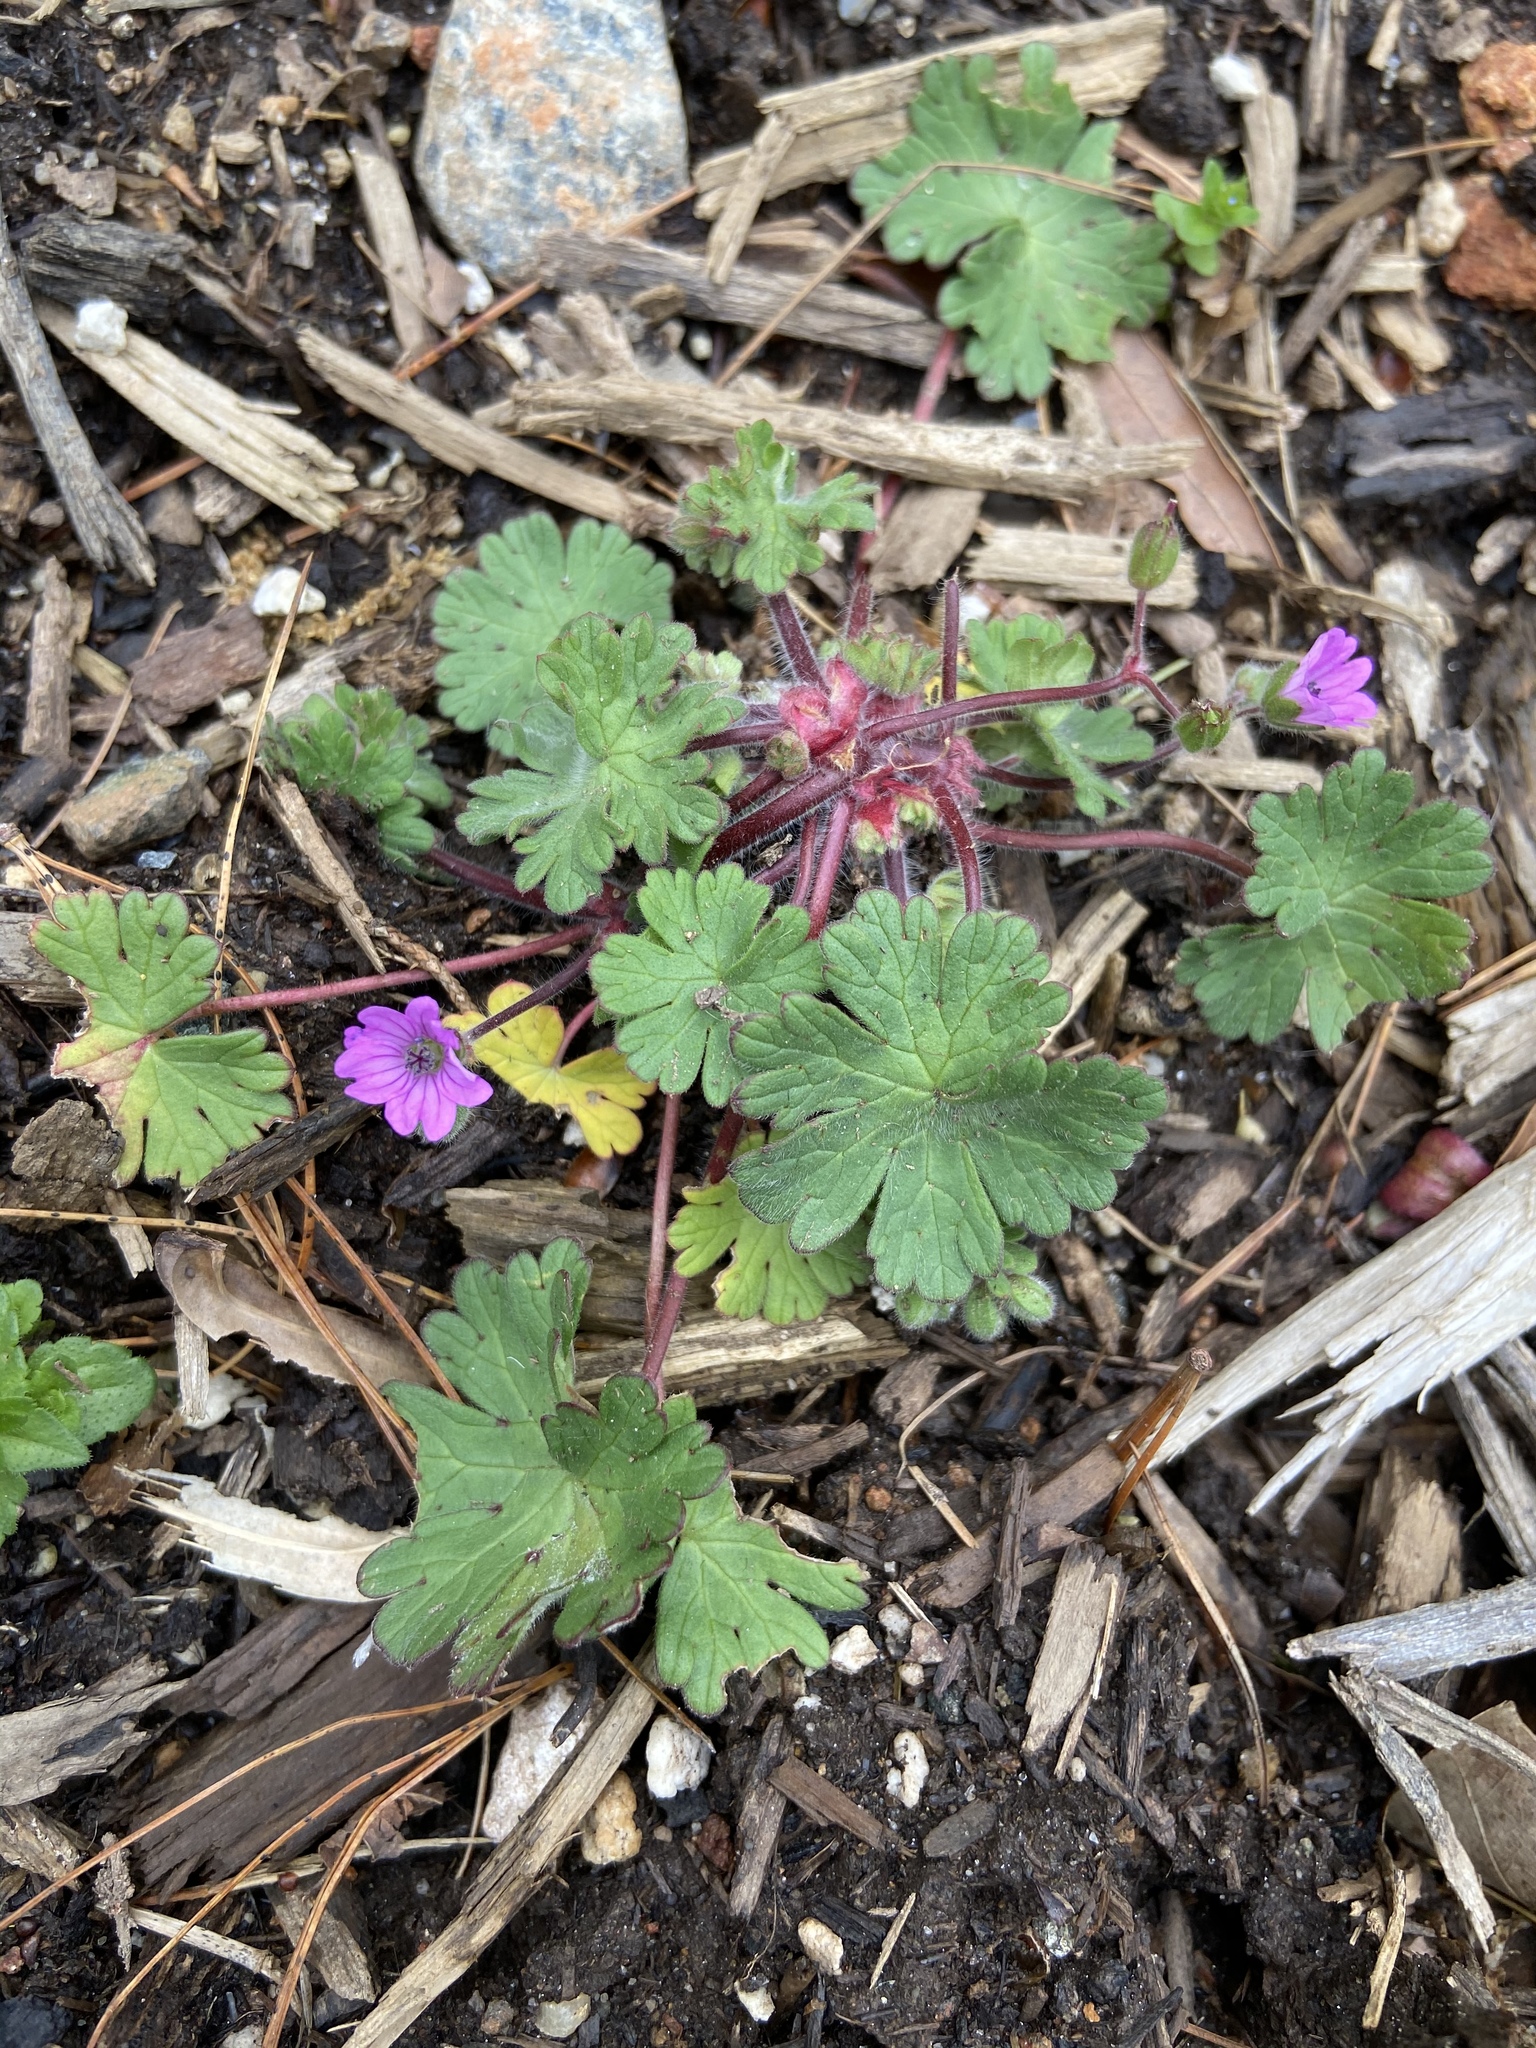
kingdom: Plantae
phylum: Tracheophyta
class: Magnoliopsida
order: Geraniales
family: Geraniaceae
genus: Geranium
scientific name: Geranium molle
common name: Dove's-foot crane's-bill
